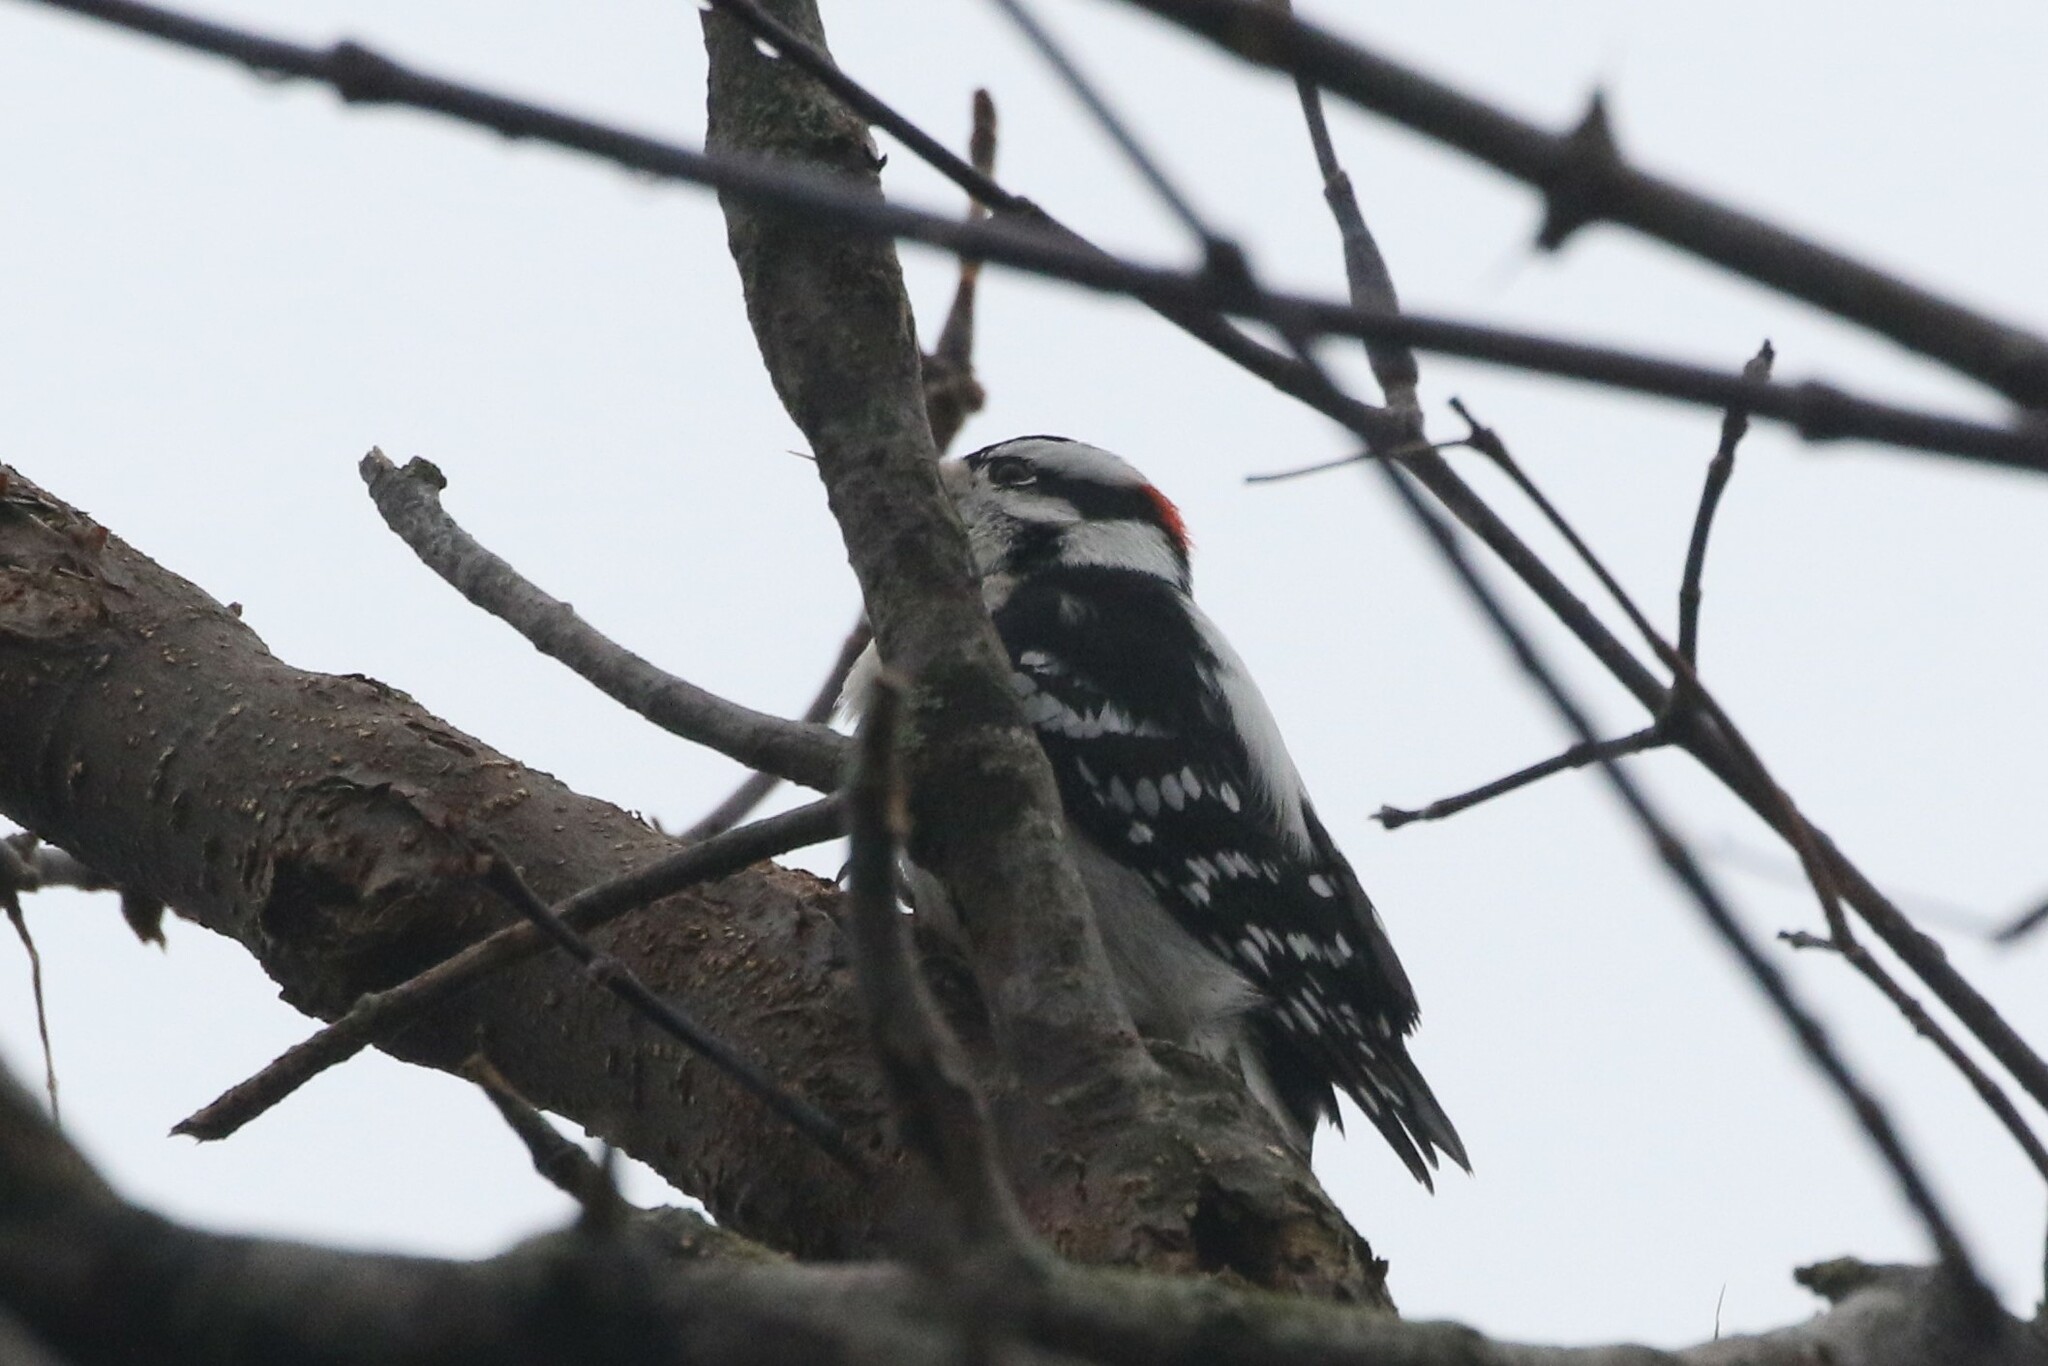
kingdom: Animalia
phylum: Chordata
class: Aves
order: Piciformes
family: Picidae
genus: Dryobates
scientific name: Dryobates pubescens
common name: Downy woodpecker
